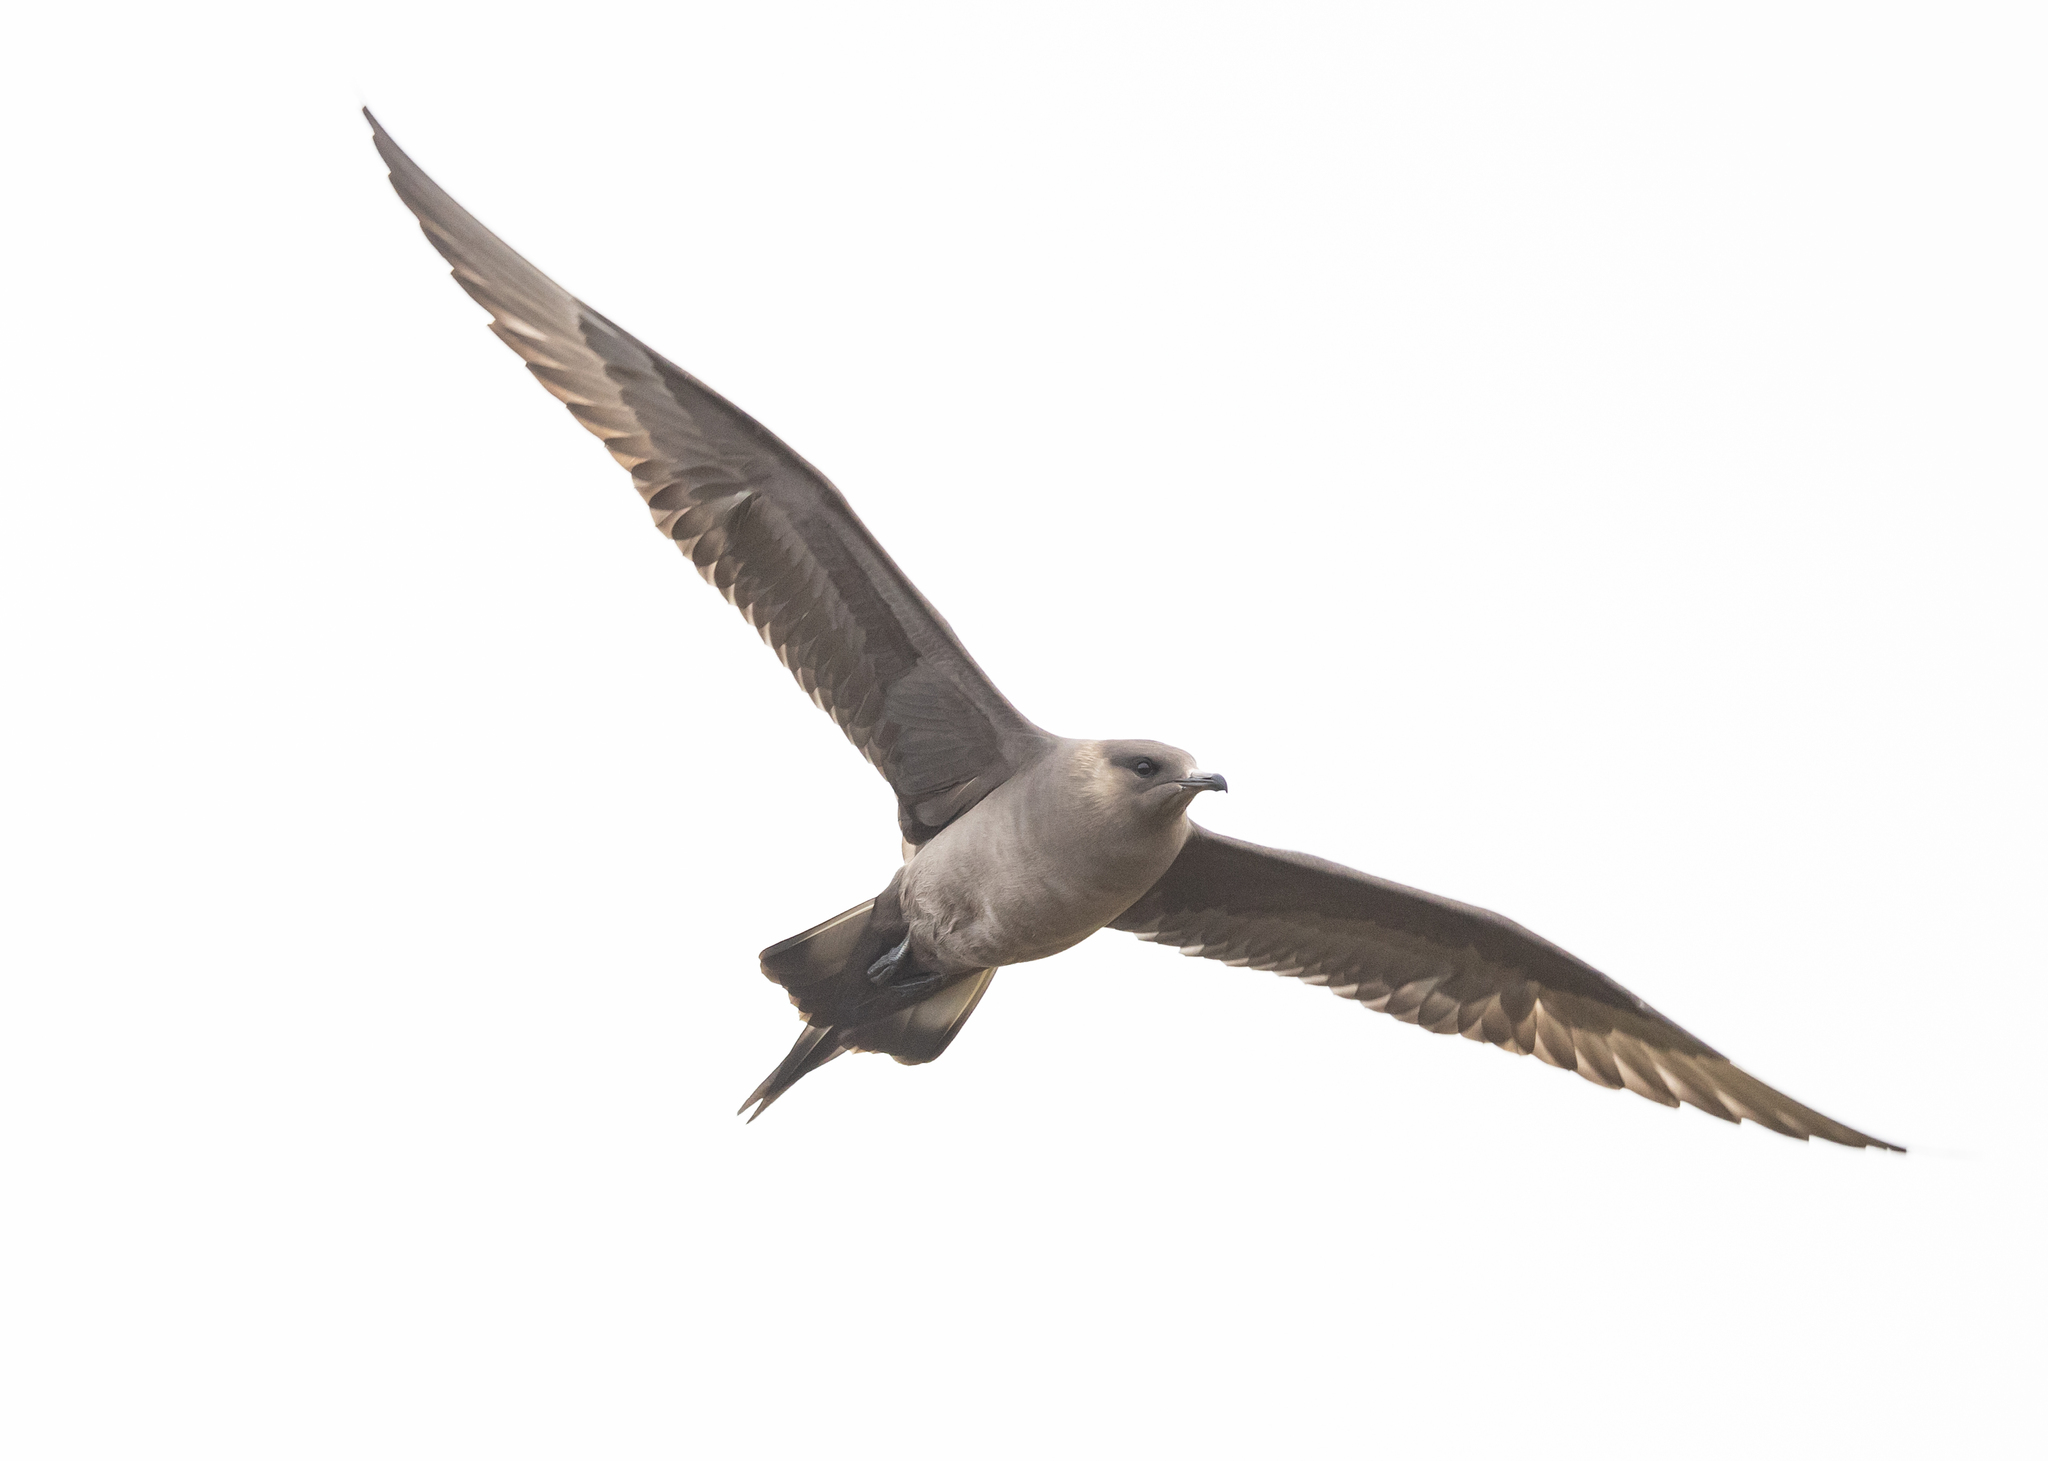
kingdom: Animalia
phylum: Chordata
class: Aves
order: Charadriiformes
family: Stercorariidae
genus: Stercorarius
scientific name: Stercorarius parasiticus
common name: Parasitic jaeger
